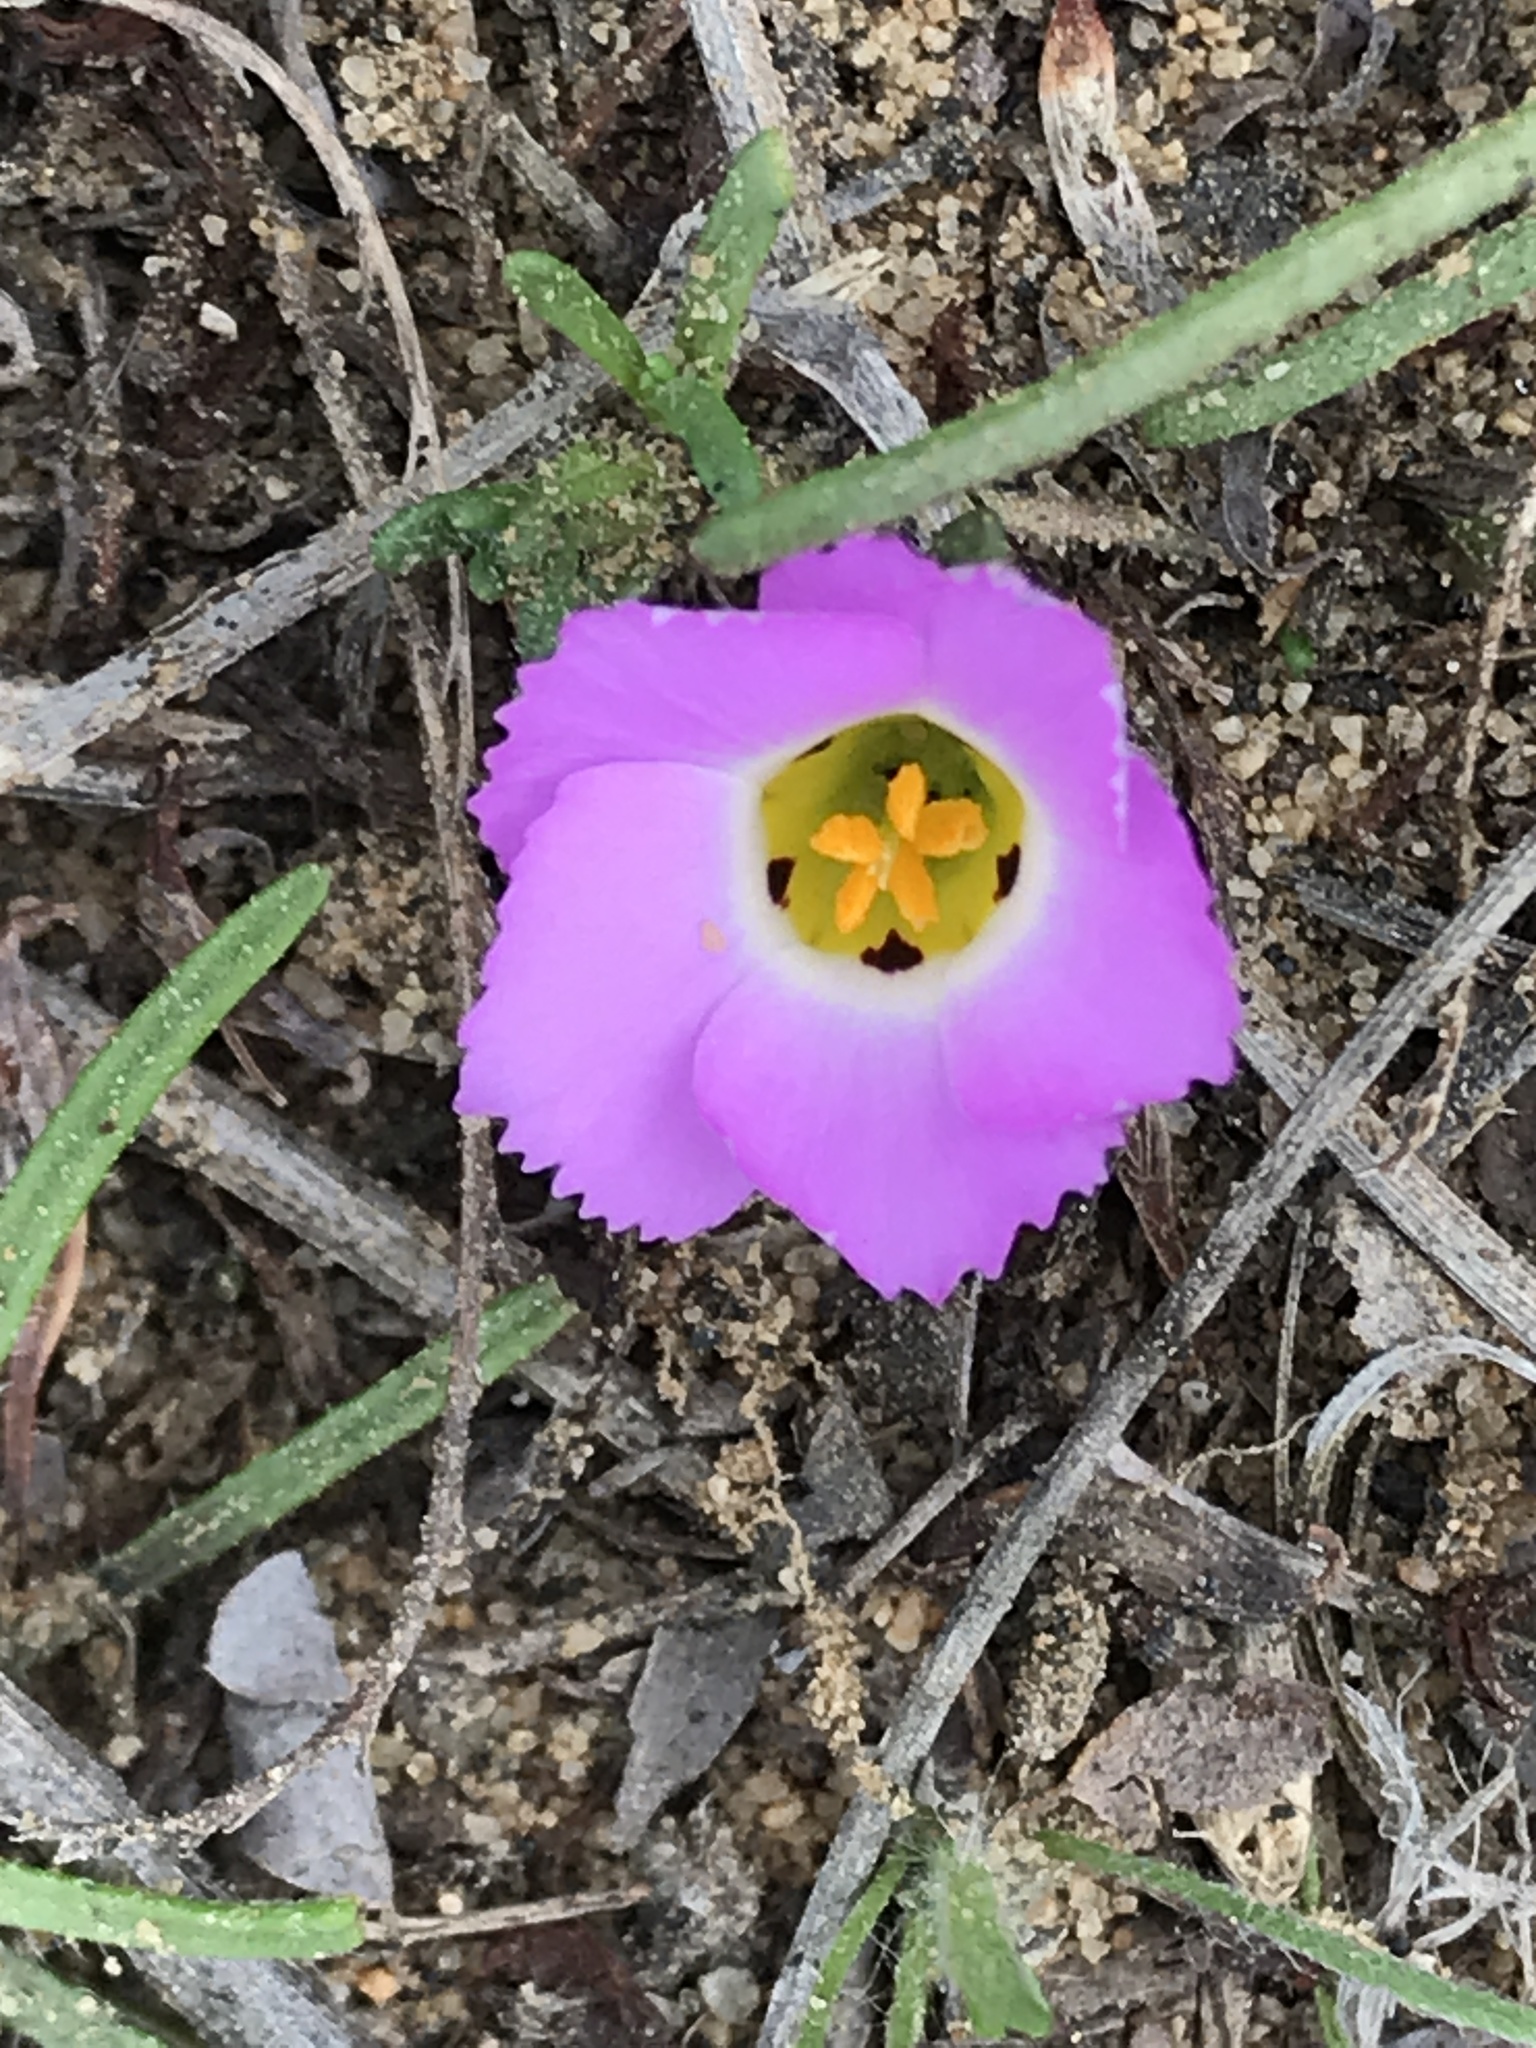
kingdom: Plantae
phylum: Tracheophyta
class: Magnoliopsida
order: Ericales
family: Polemoniaceae
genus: Linanthus
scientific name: Linanthus dianthiflorus
